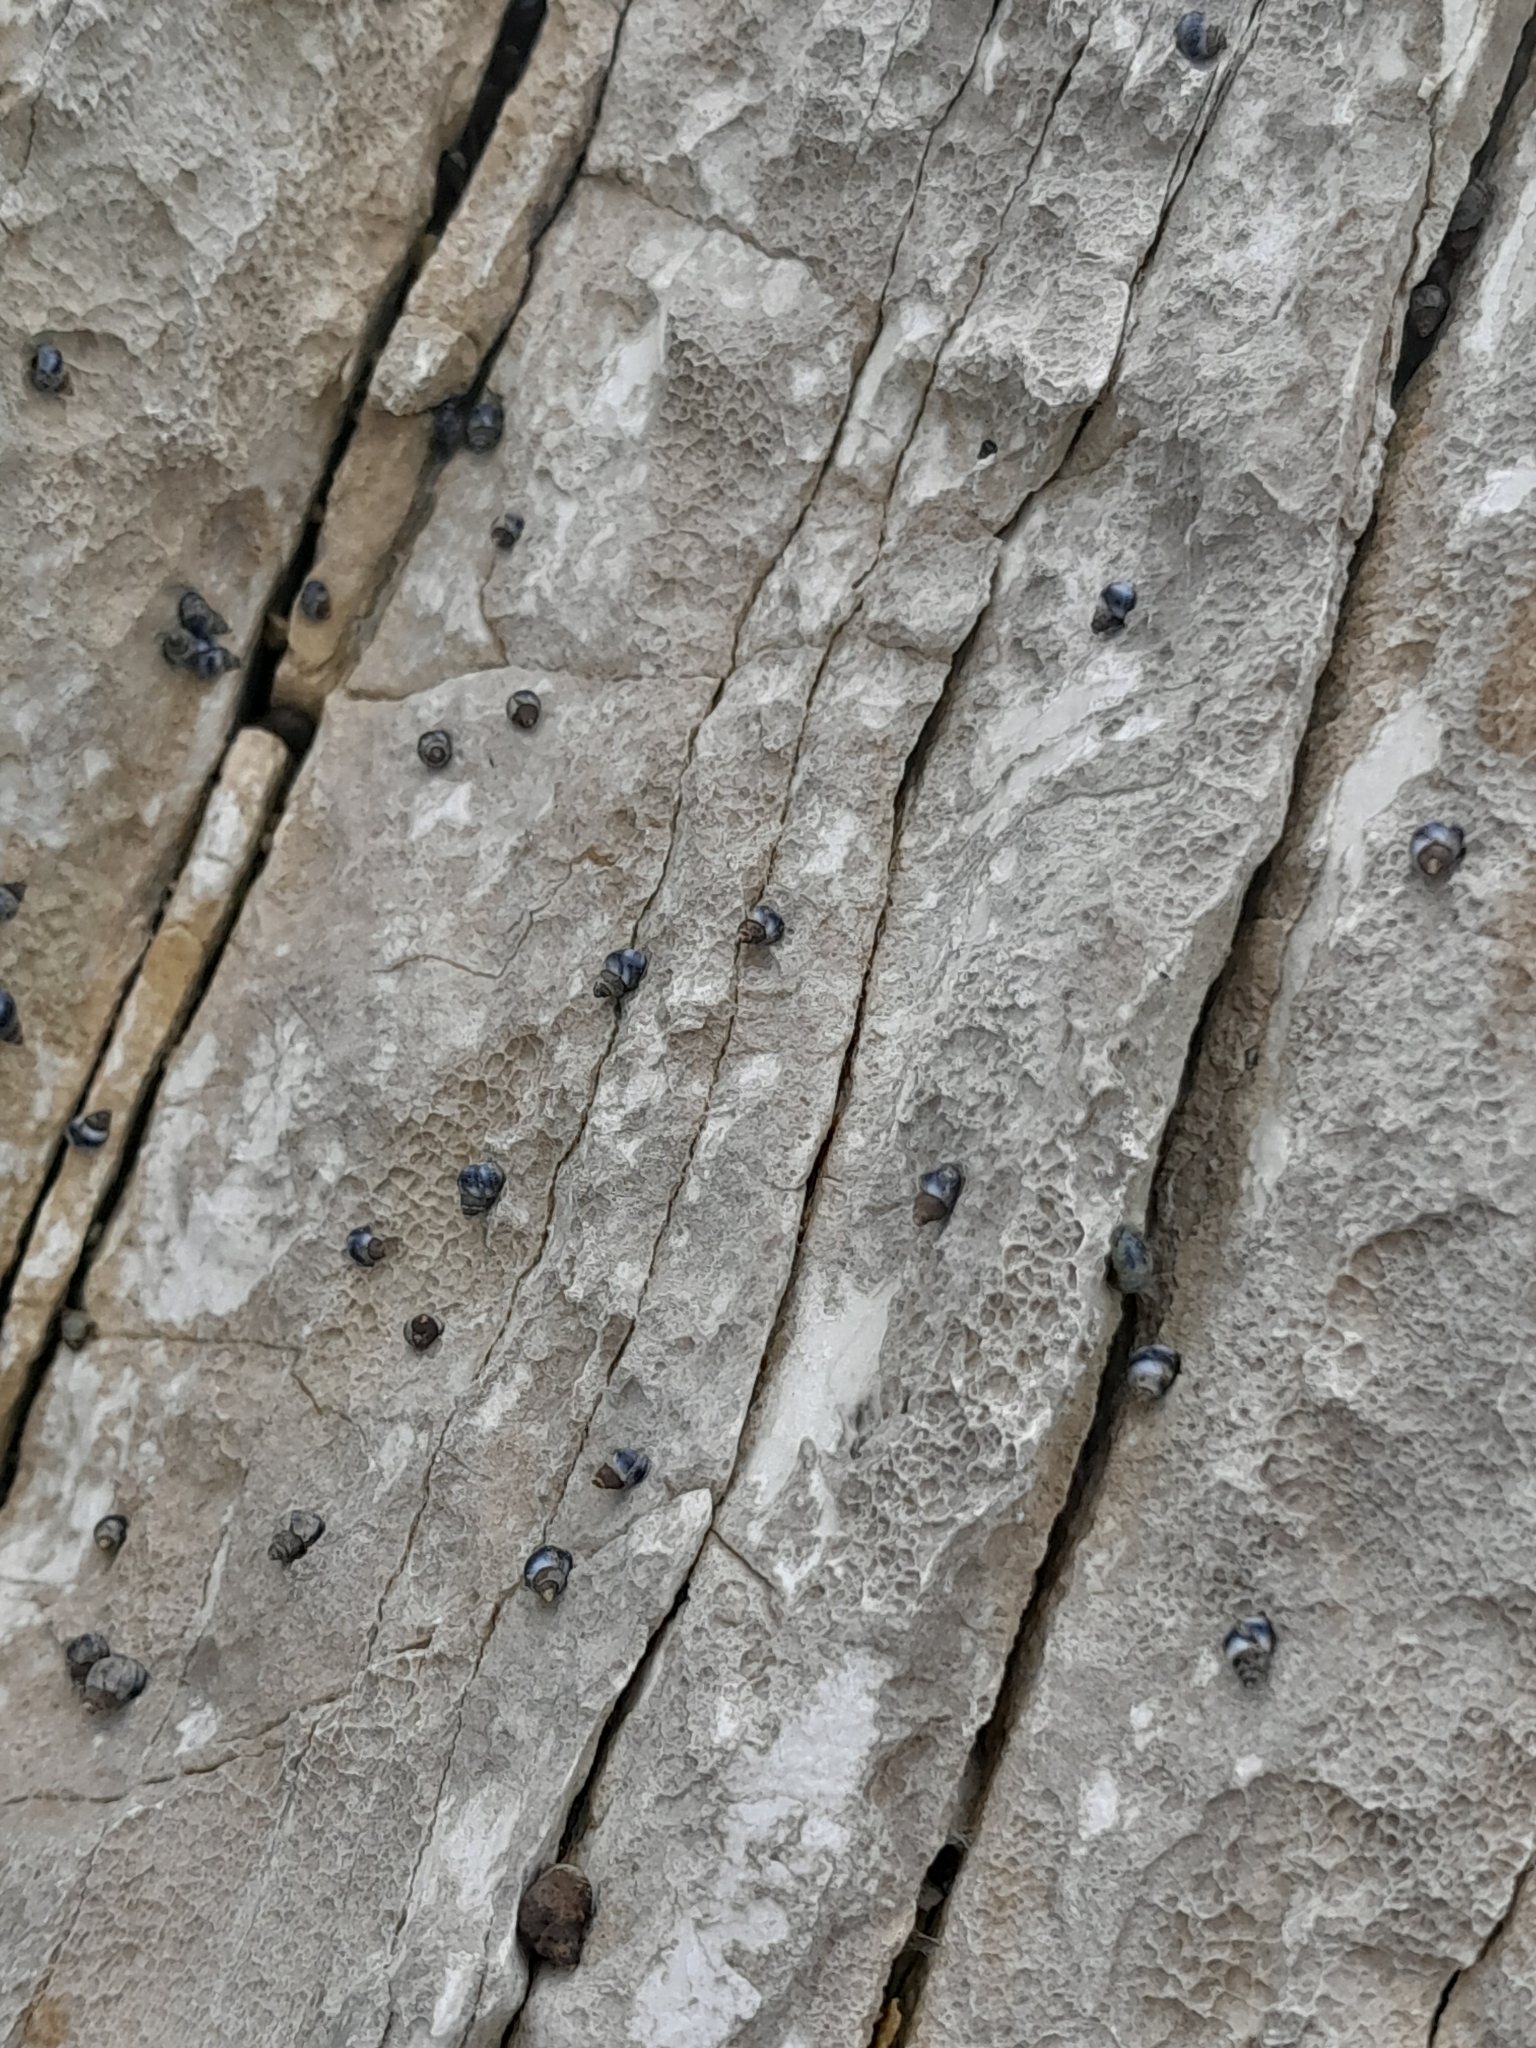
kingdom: Animalia
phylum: Mollusca
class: Gastropoda
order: Littorinimorpha
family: Littorinidae
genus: Austrolittorina
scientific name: Austrolittorina antipodum
